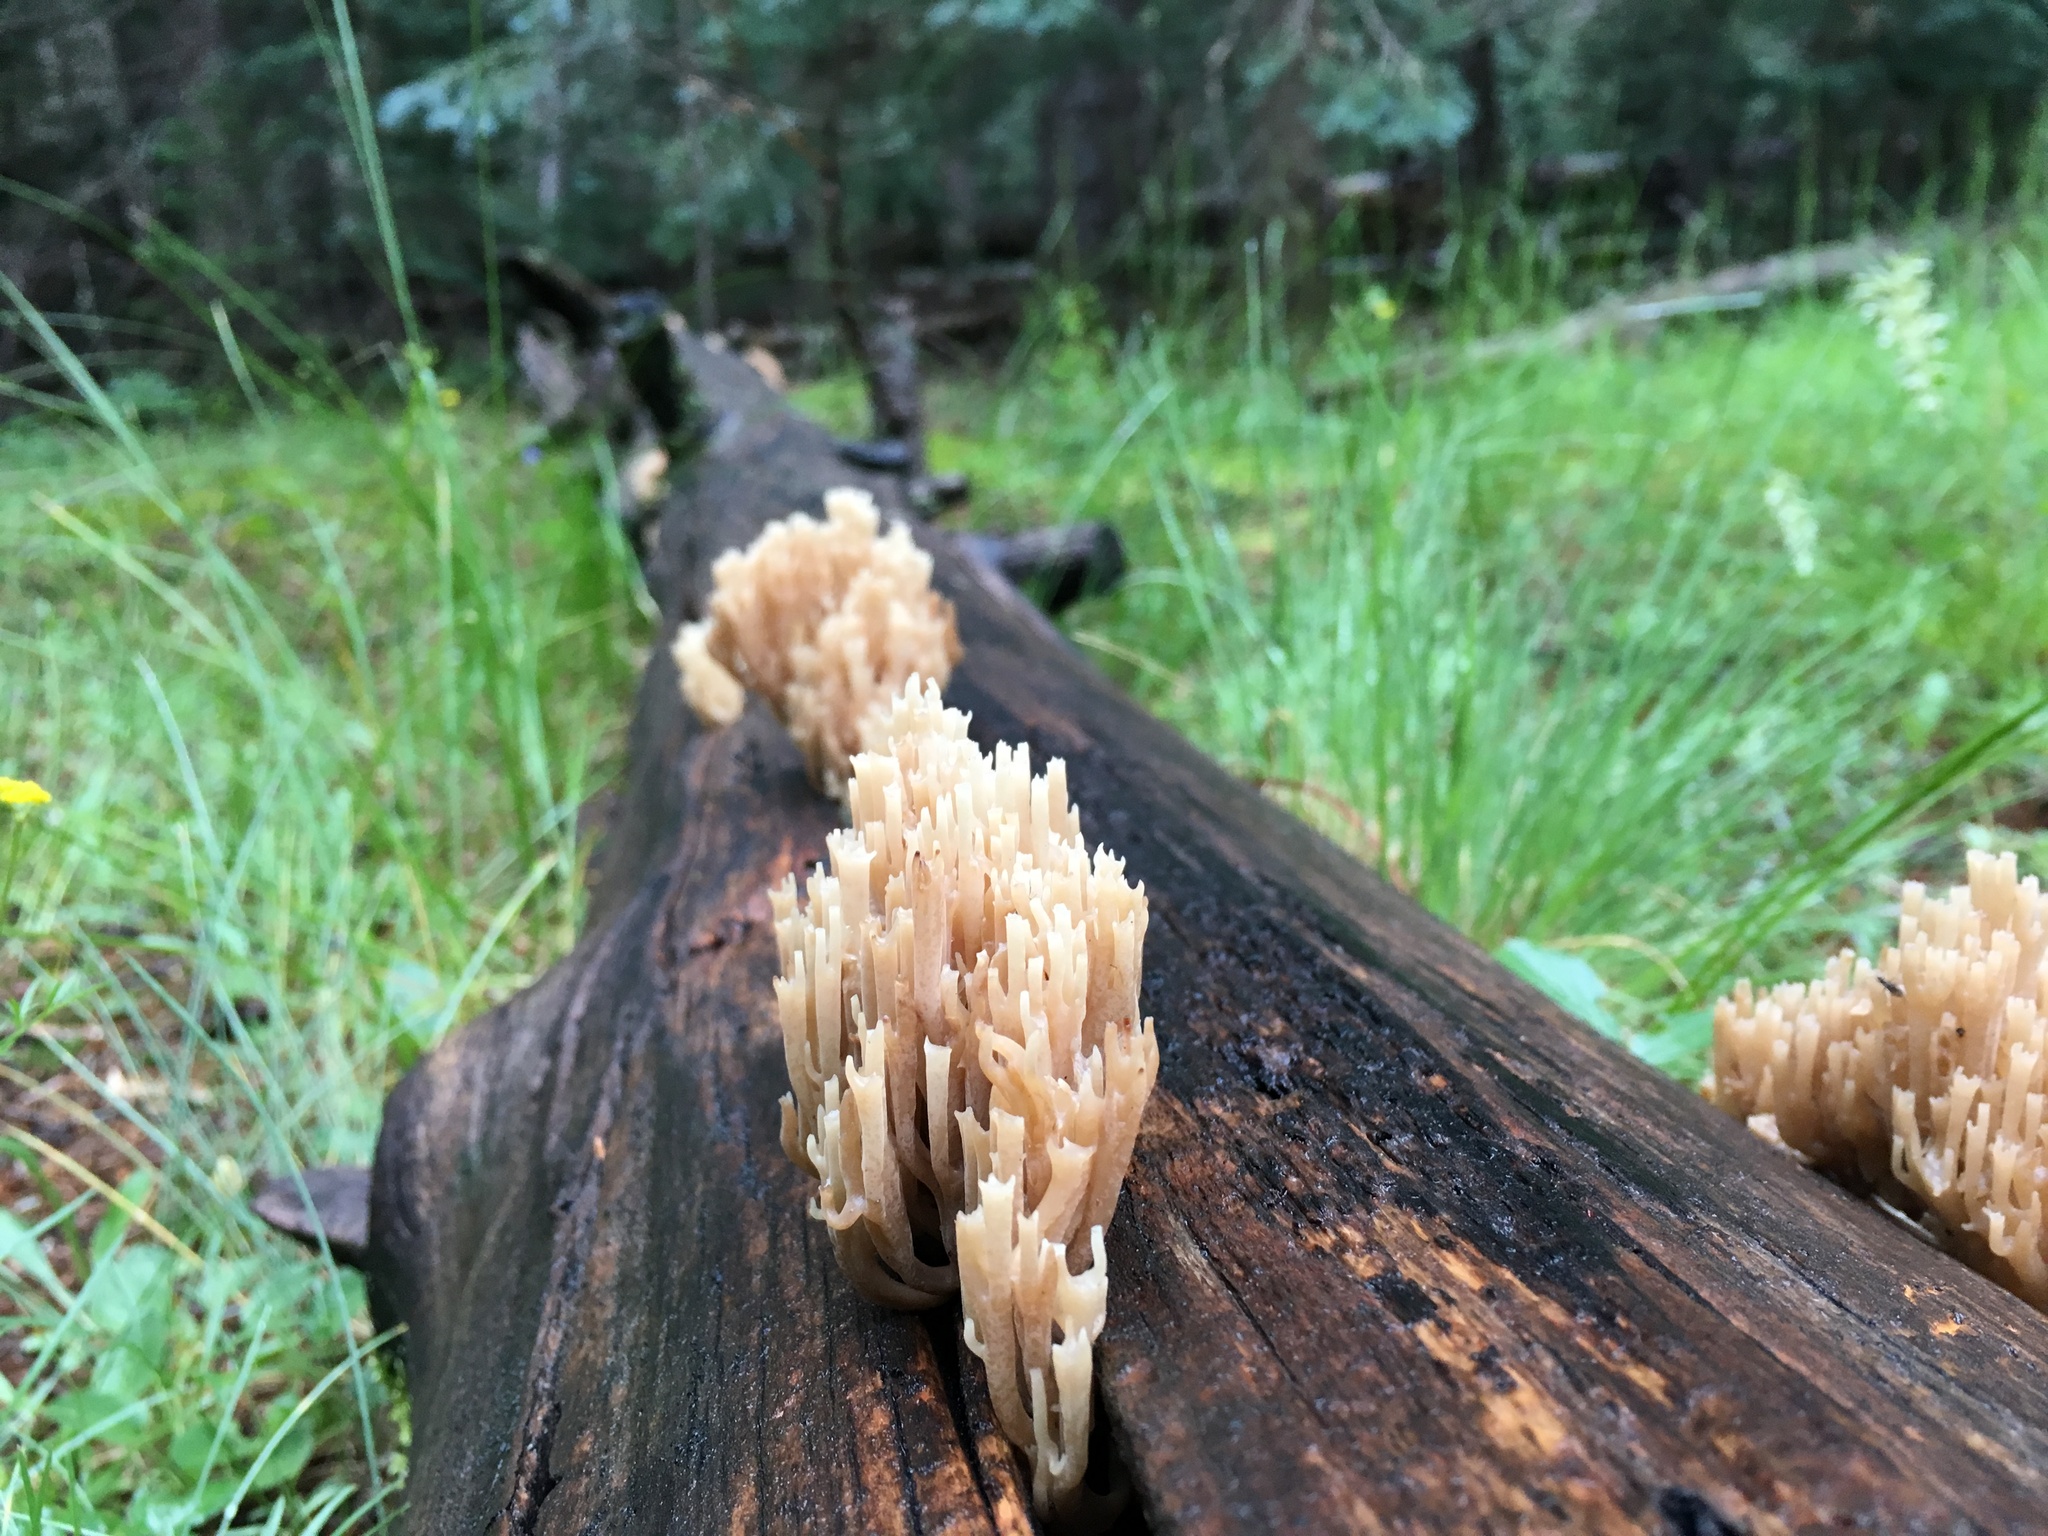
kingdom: Fungi
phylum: Basidiomycota
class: Agaricomycetes
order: Russulales
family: Auriscalpiaceae
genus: Artomyces
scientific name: Artomyces pyxidatus
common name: Crown-tipped coral fungus
